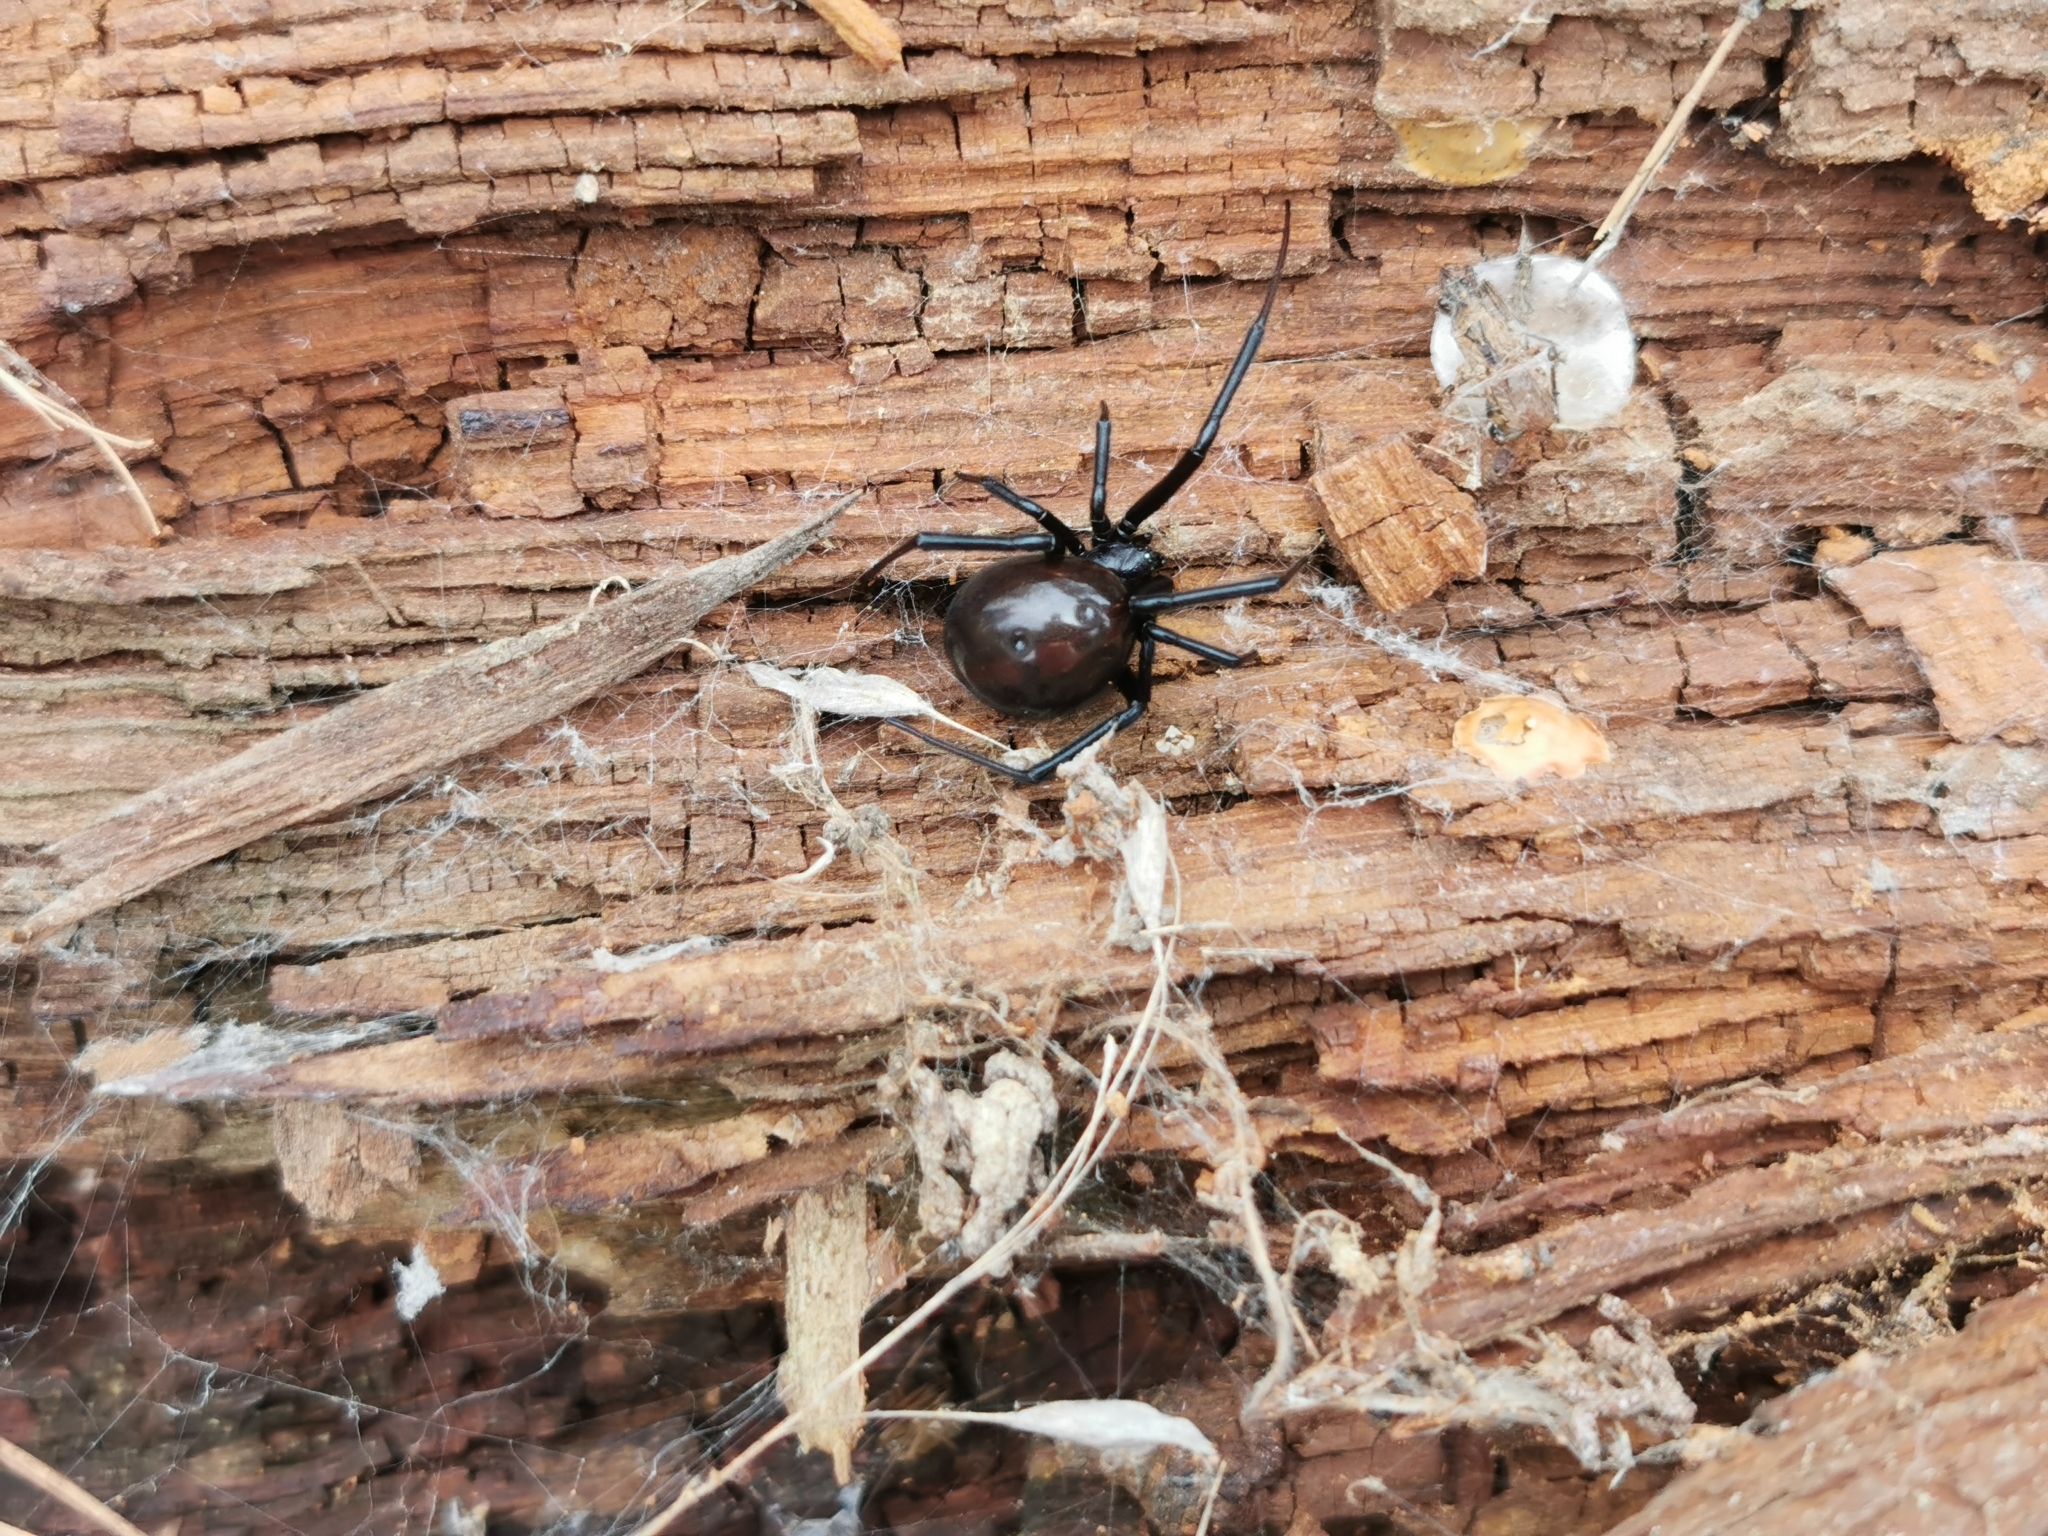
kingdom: Animalia
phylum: Arthropoda
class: Arachnida
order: Araneae
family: Theridiidae
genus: Latrodectus
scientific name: Latrodectus hesperus
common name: Western black widow
